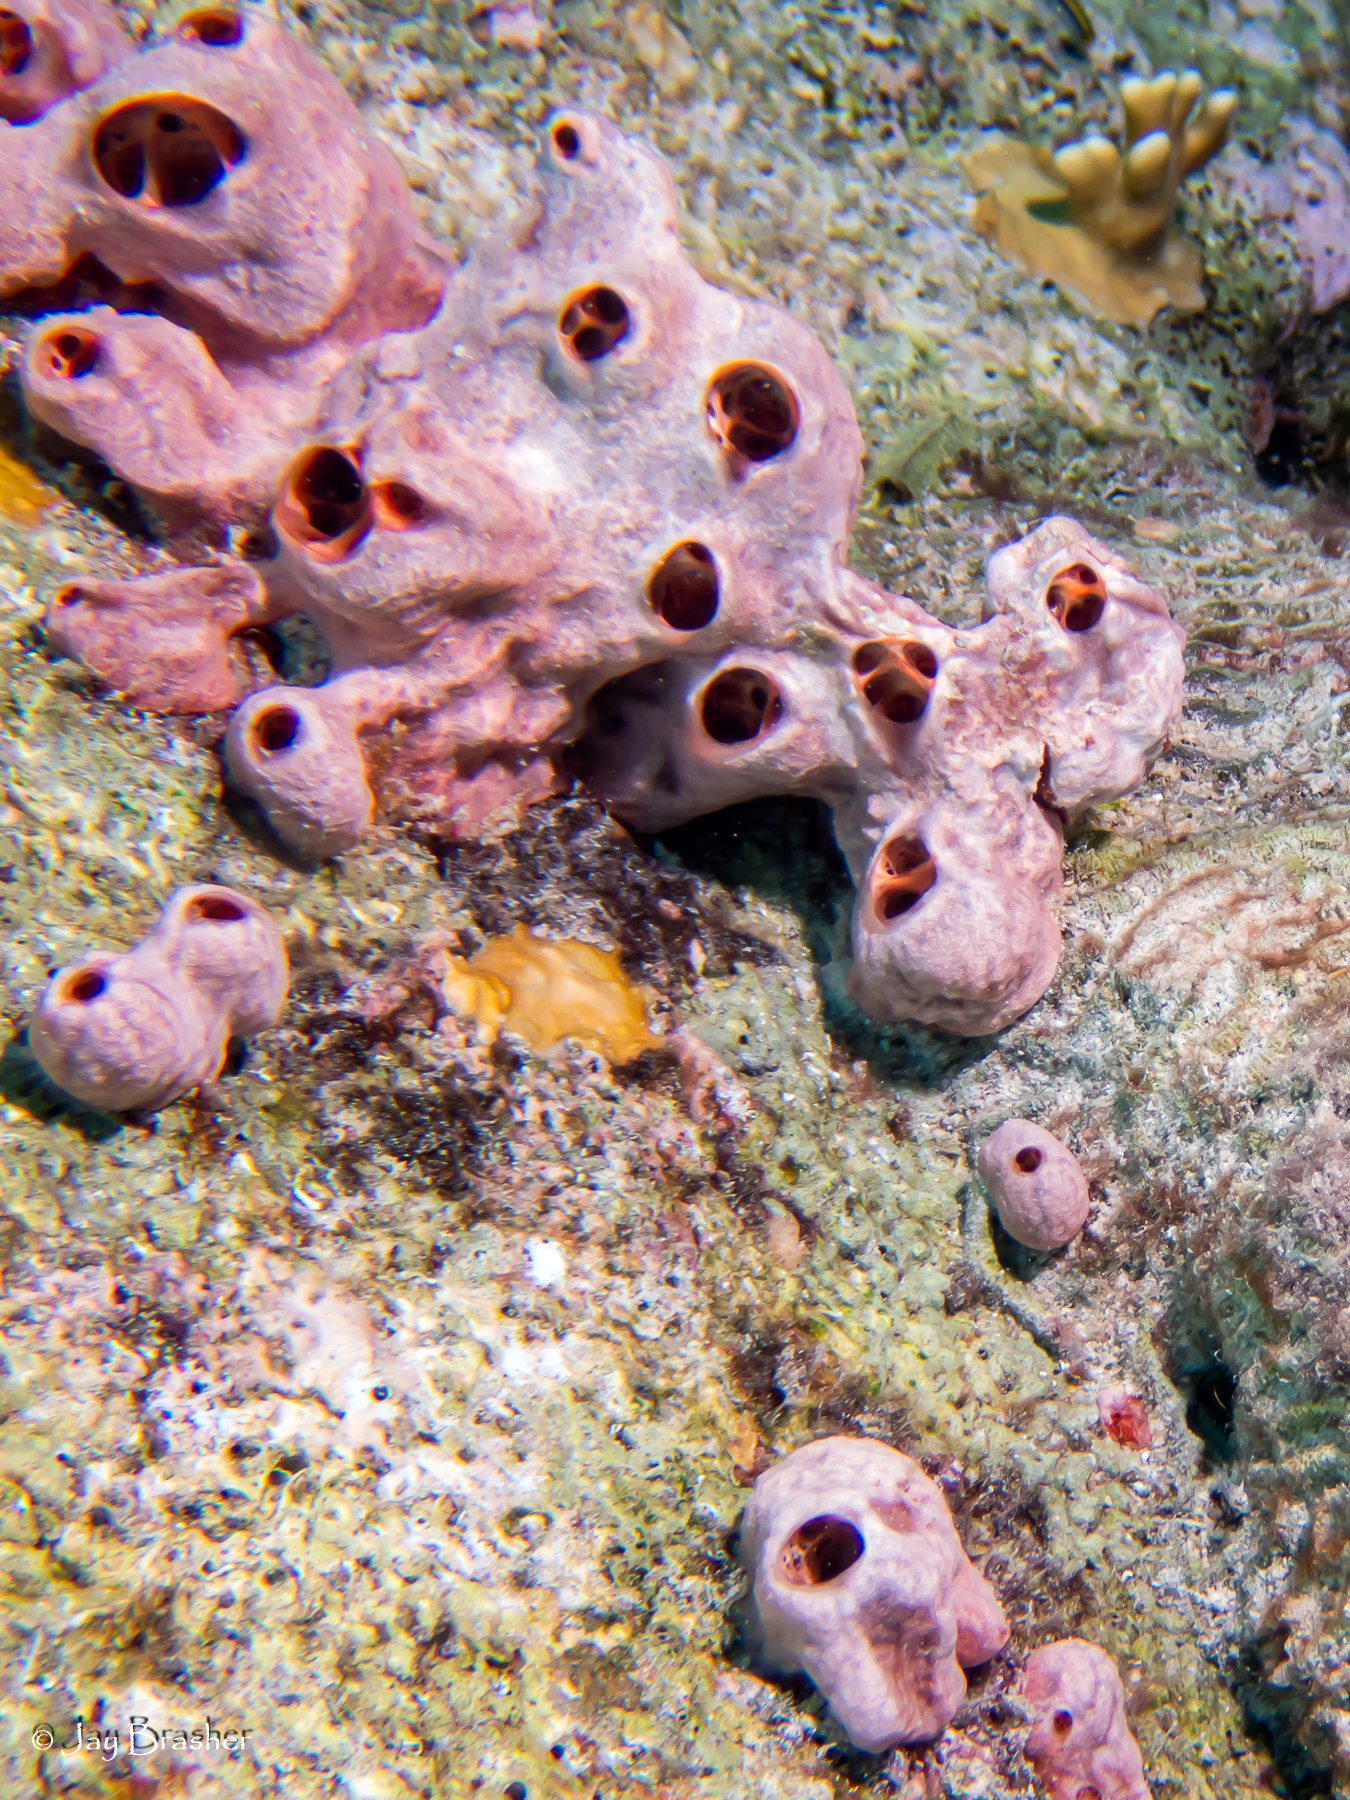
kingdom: Animalia
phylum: Porifera
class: Demospongiae
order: Poecilosclerida
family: Desmacididae
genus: Desmapsamma
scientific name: Desmapsamma anchorata
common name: Lumpy overgrowing sponge
